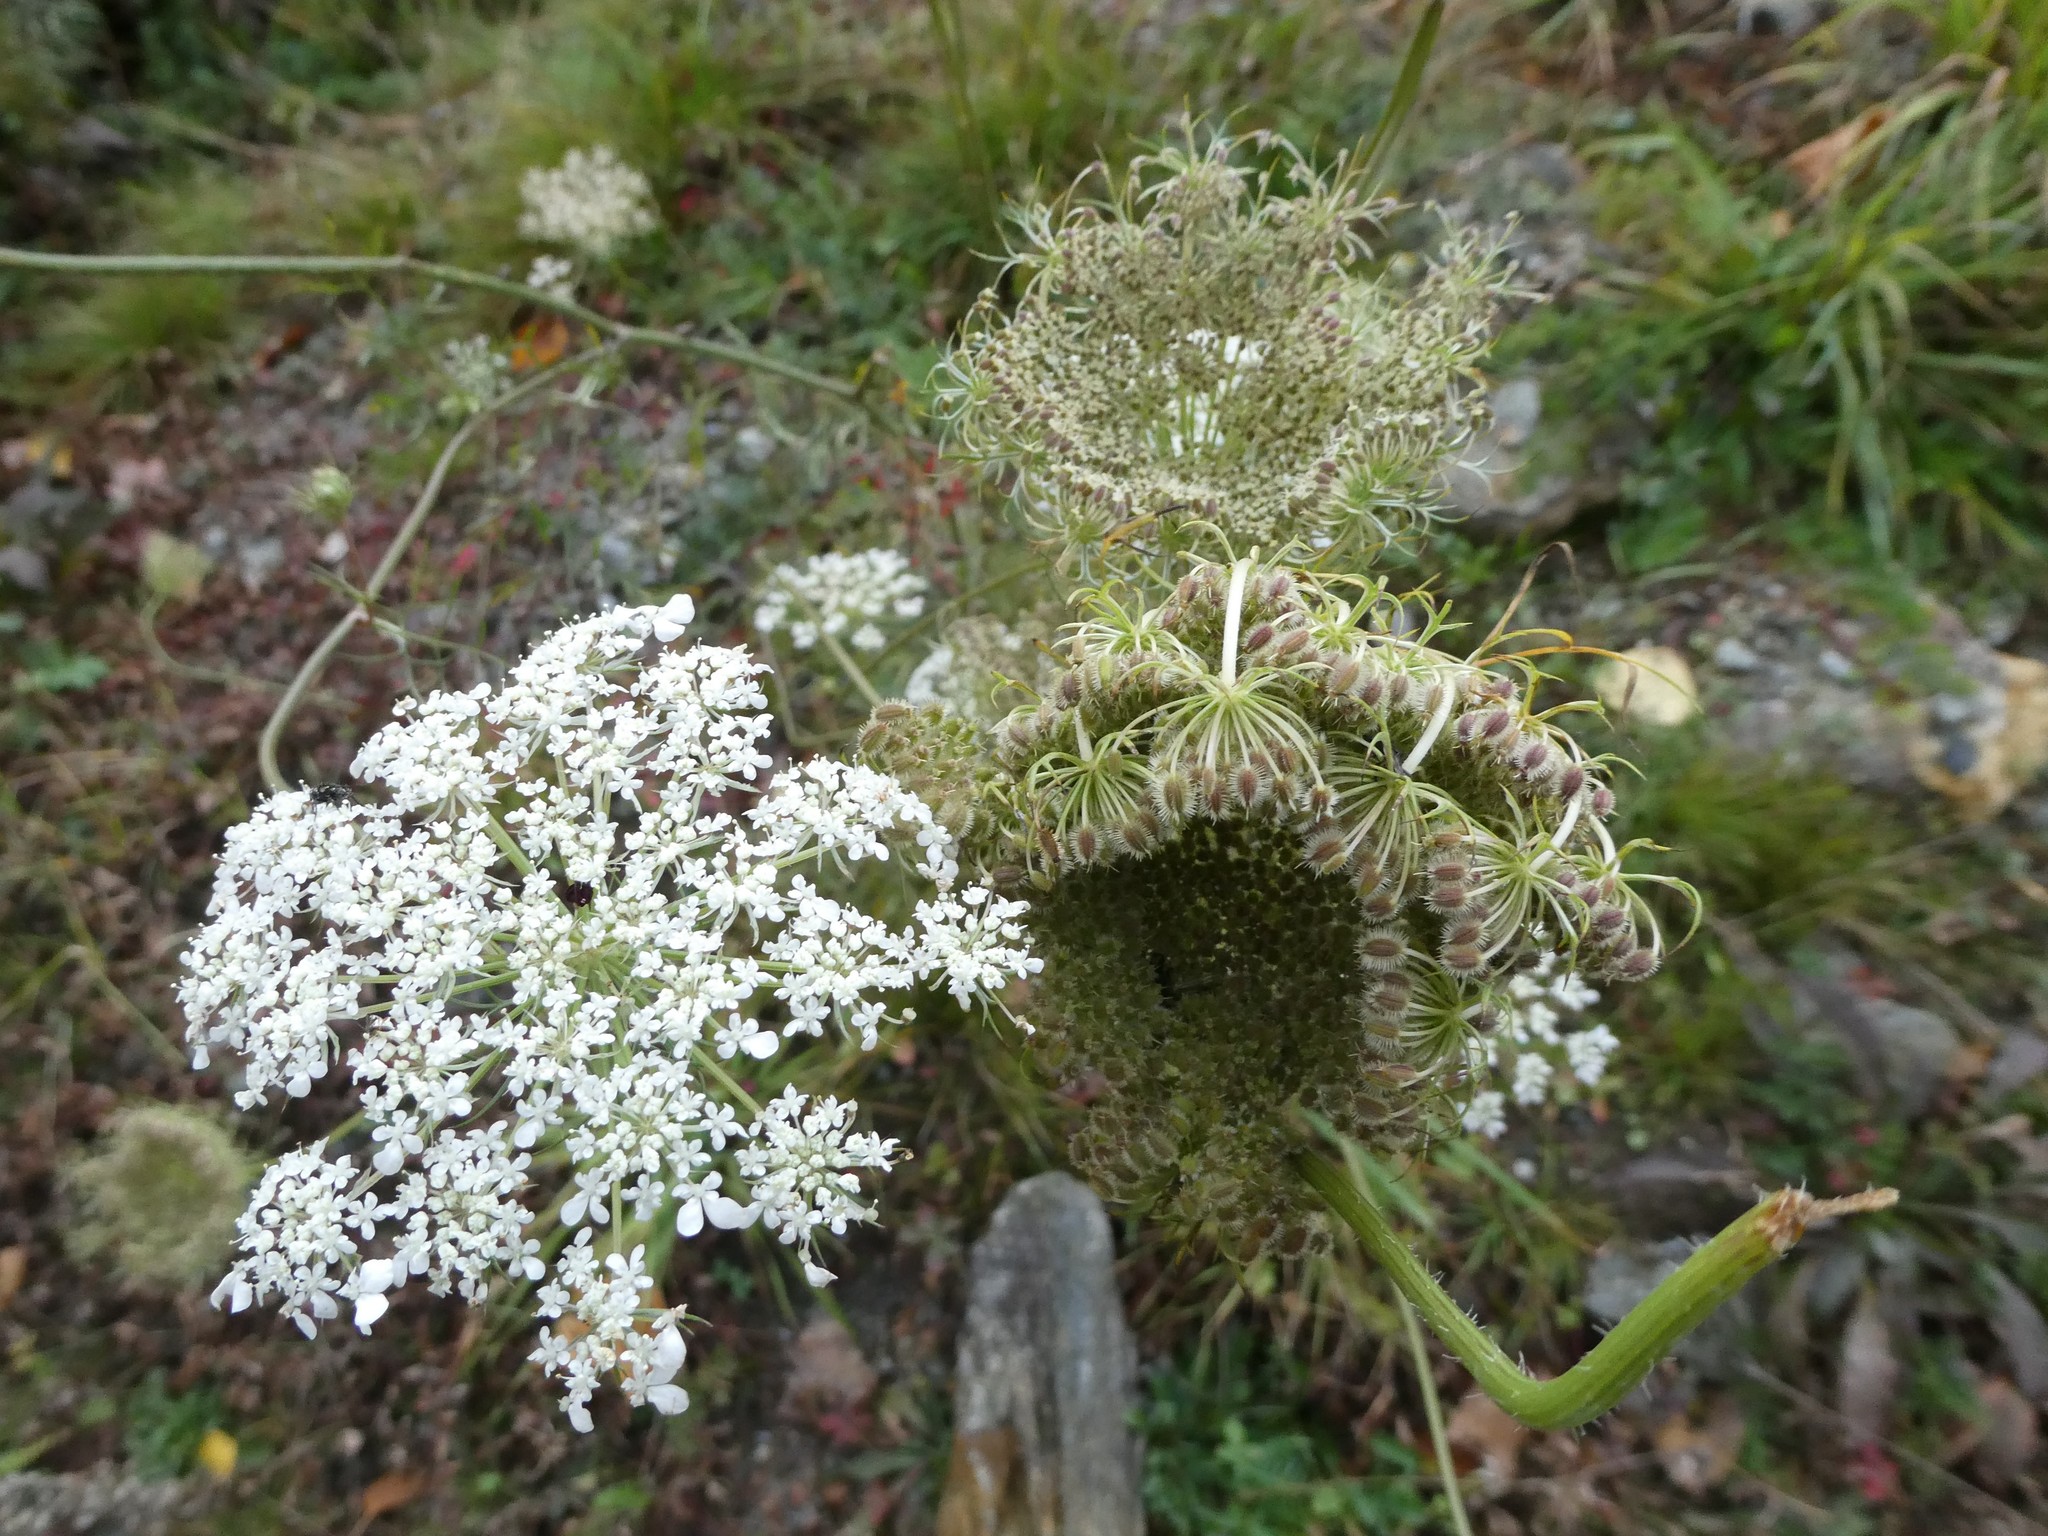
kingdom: Plantae
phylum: Tracheophyta
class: Magnoliopsida
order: Apiales
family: Apiaceae
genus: Daucus
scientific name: Daucus carota
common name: Wild carrot
